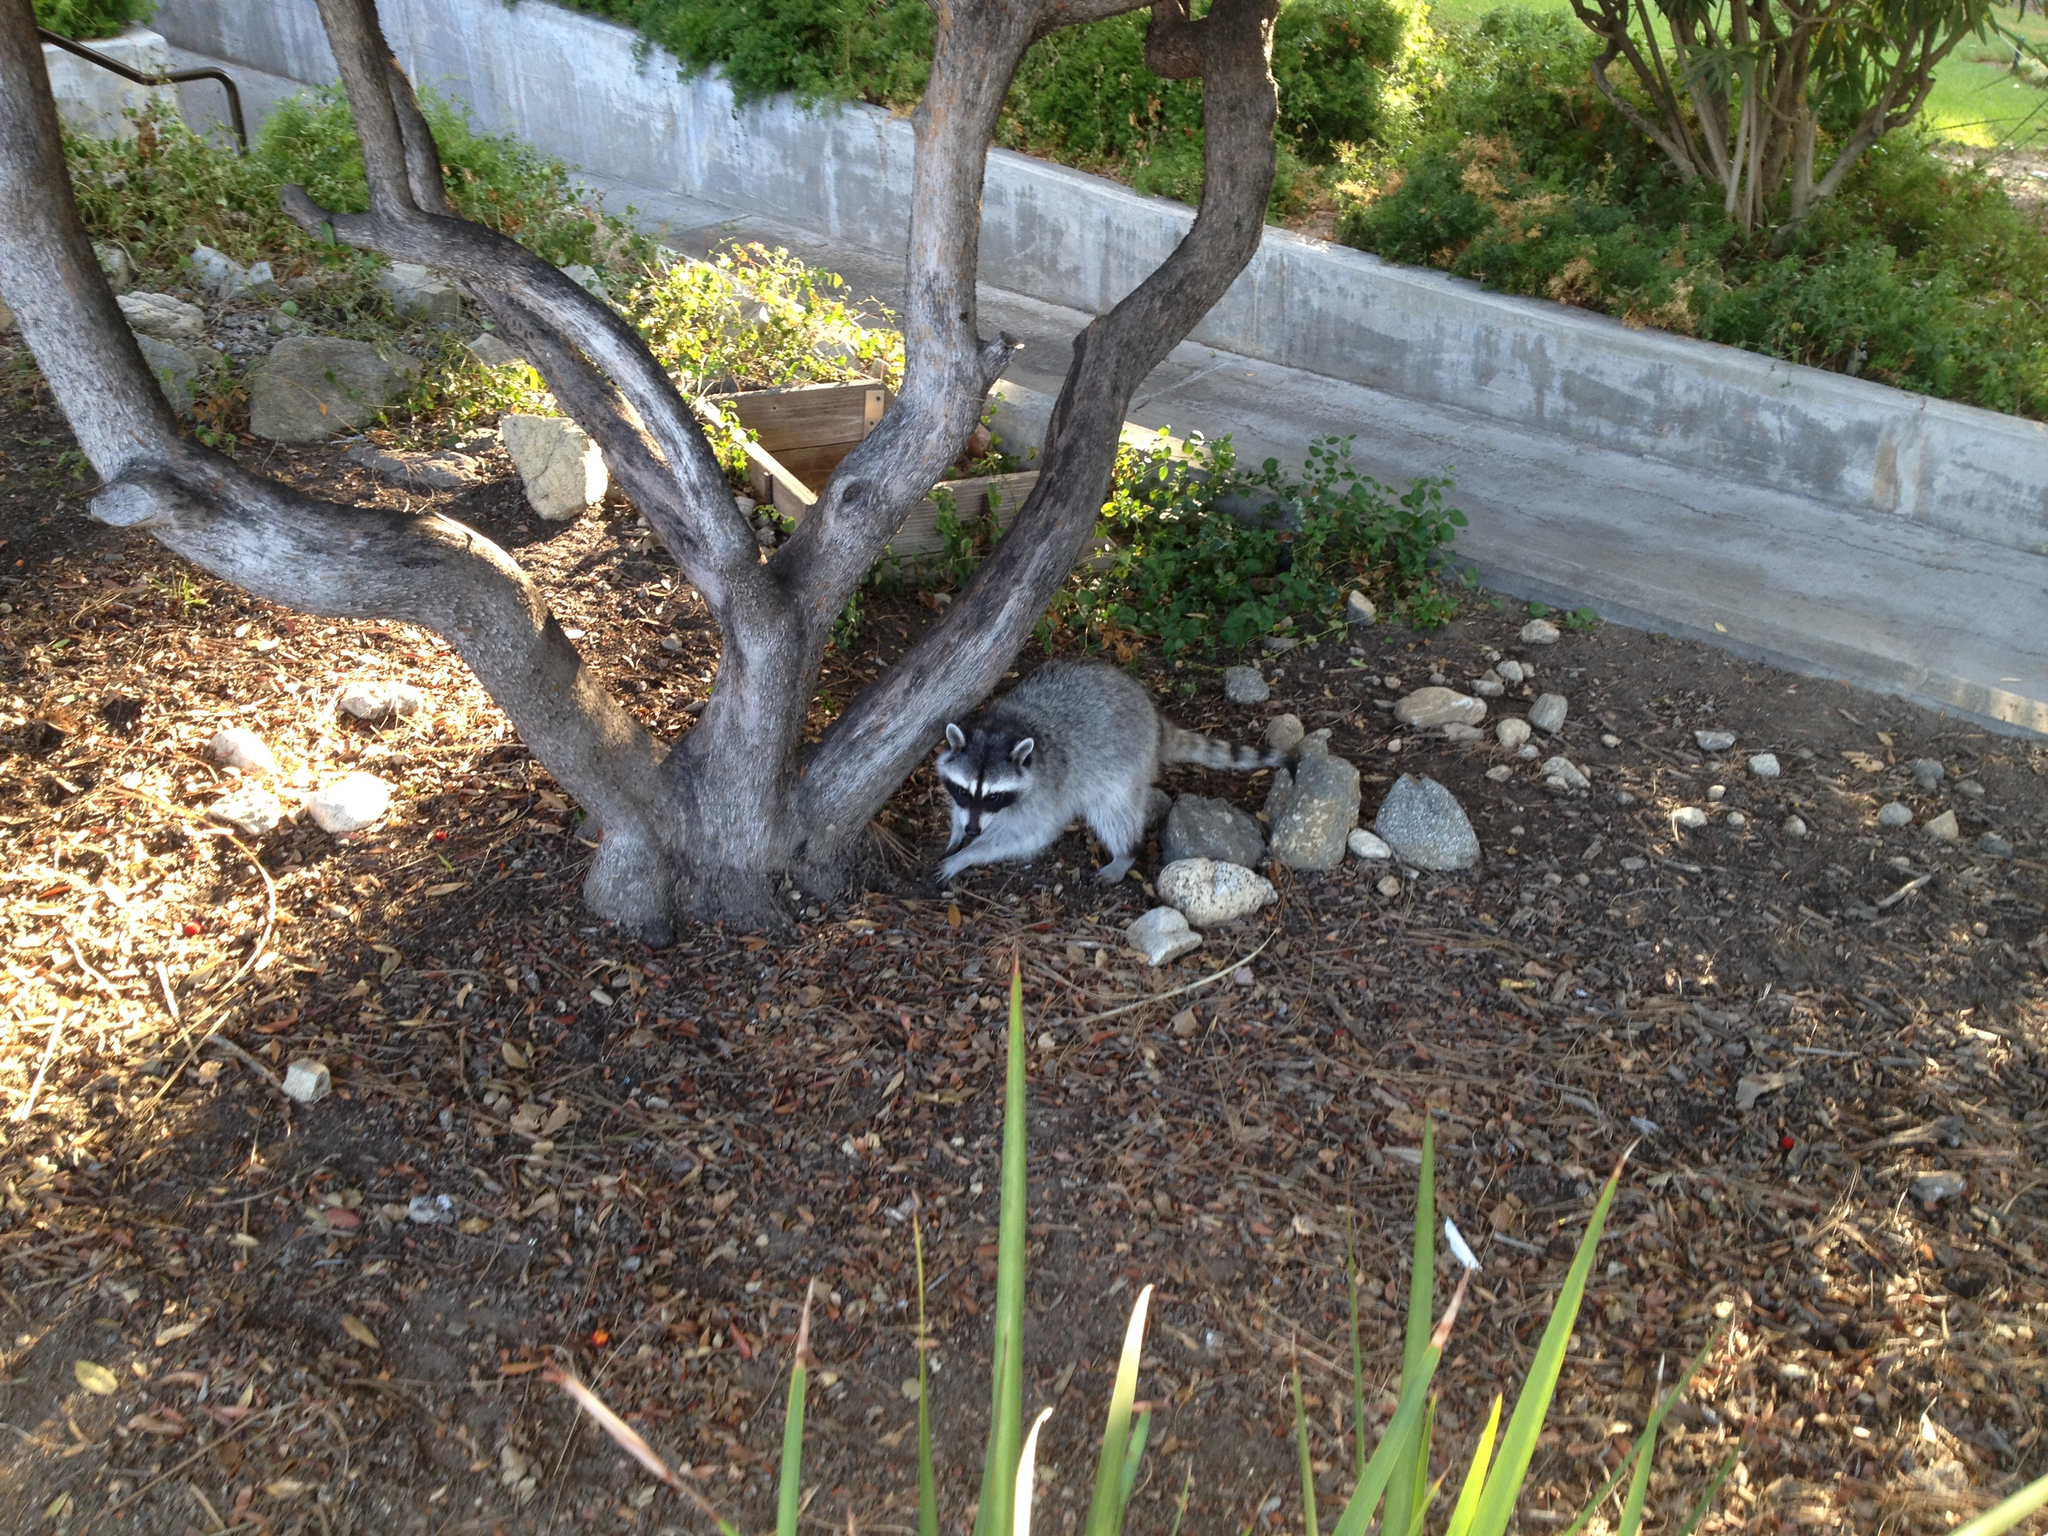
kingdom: Animalia
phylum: Chordata
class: Mammalia
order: Carnivora
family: Procyonidae
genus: Procyon
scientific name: Procyon lotor
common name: Raccoon
